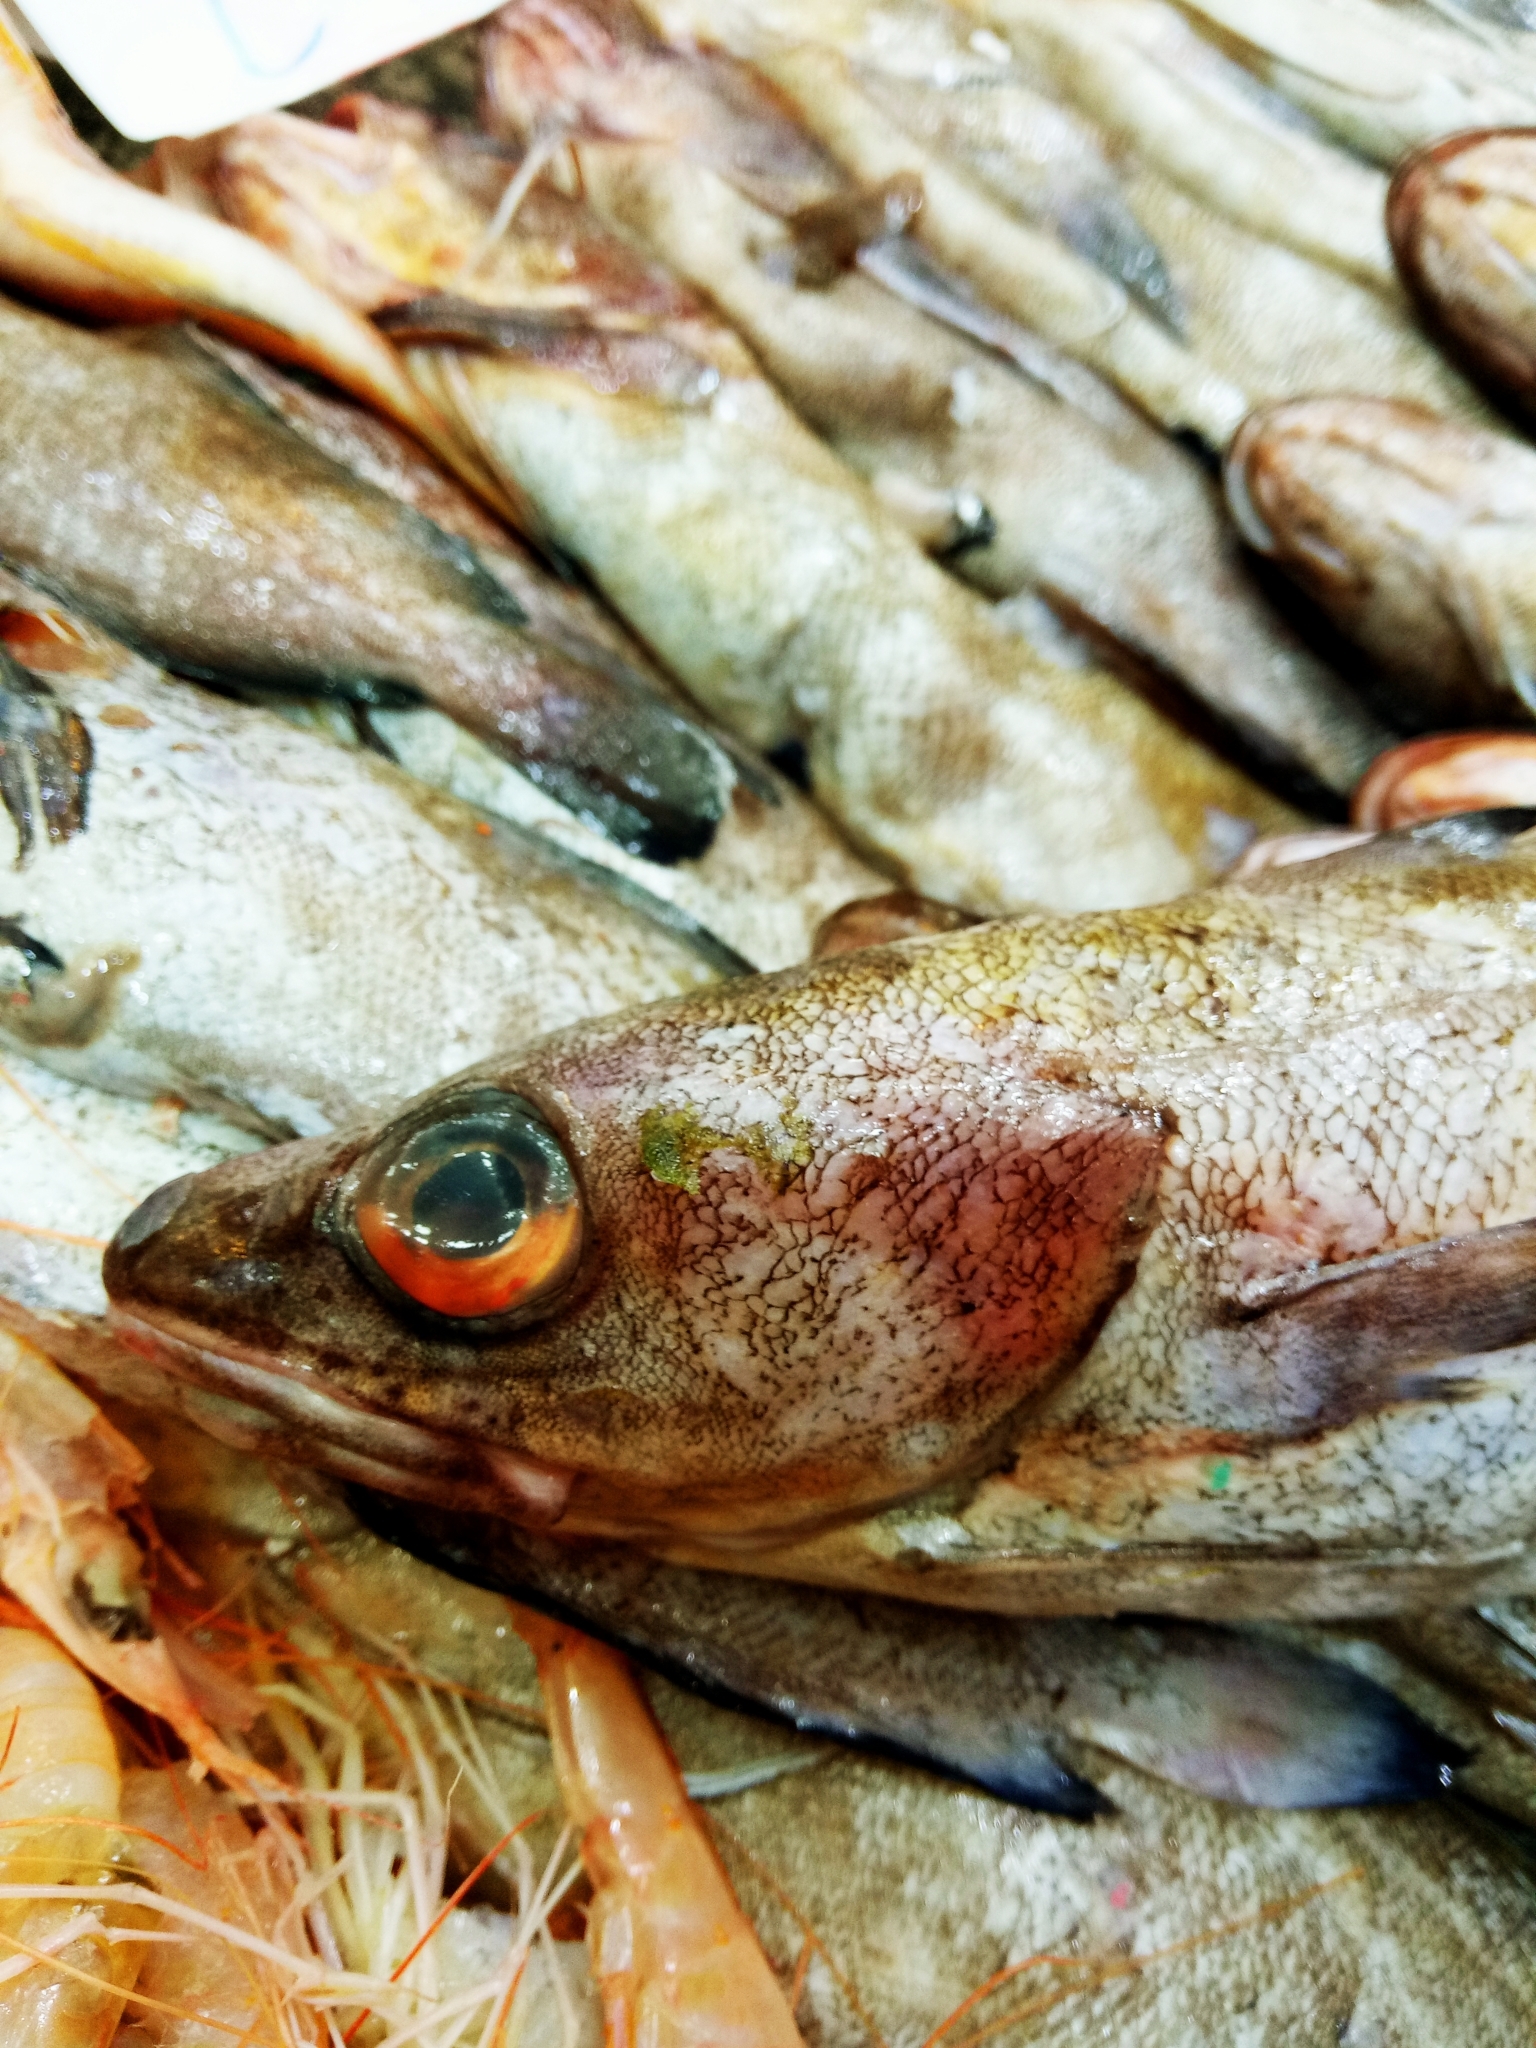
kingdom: Animalia
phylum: Chordata
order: Gadiformes
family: Phycidae
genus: Phycis
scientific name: Phycis phycis
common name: Forkbeard
